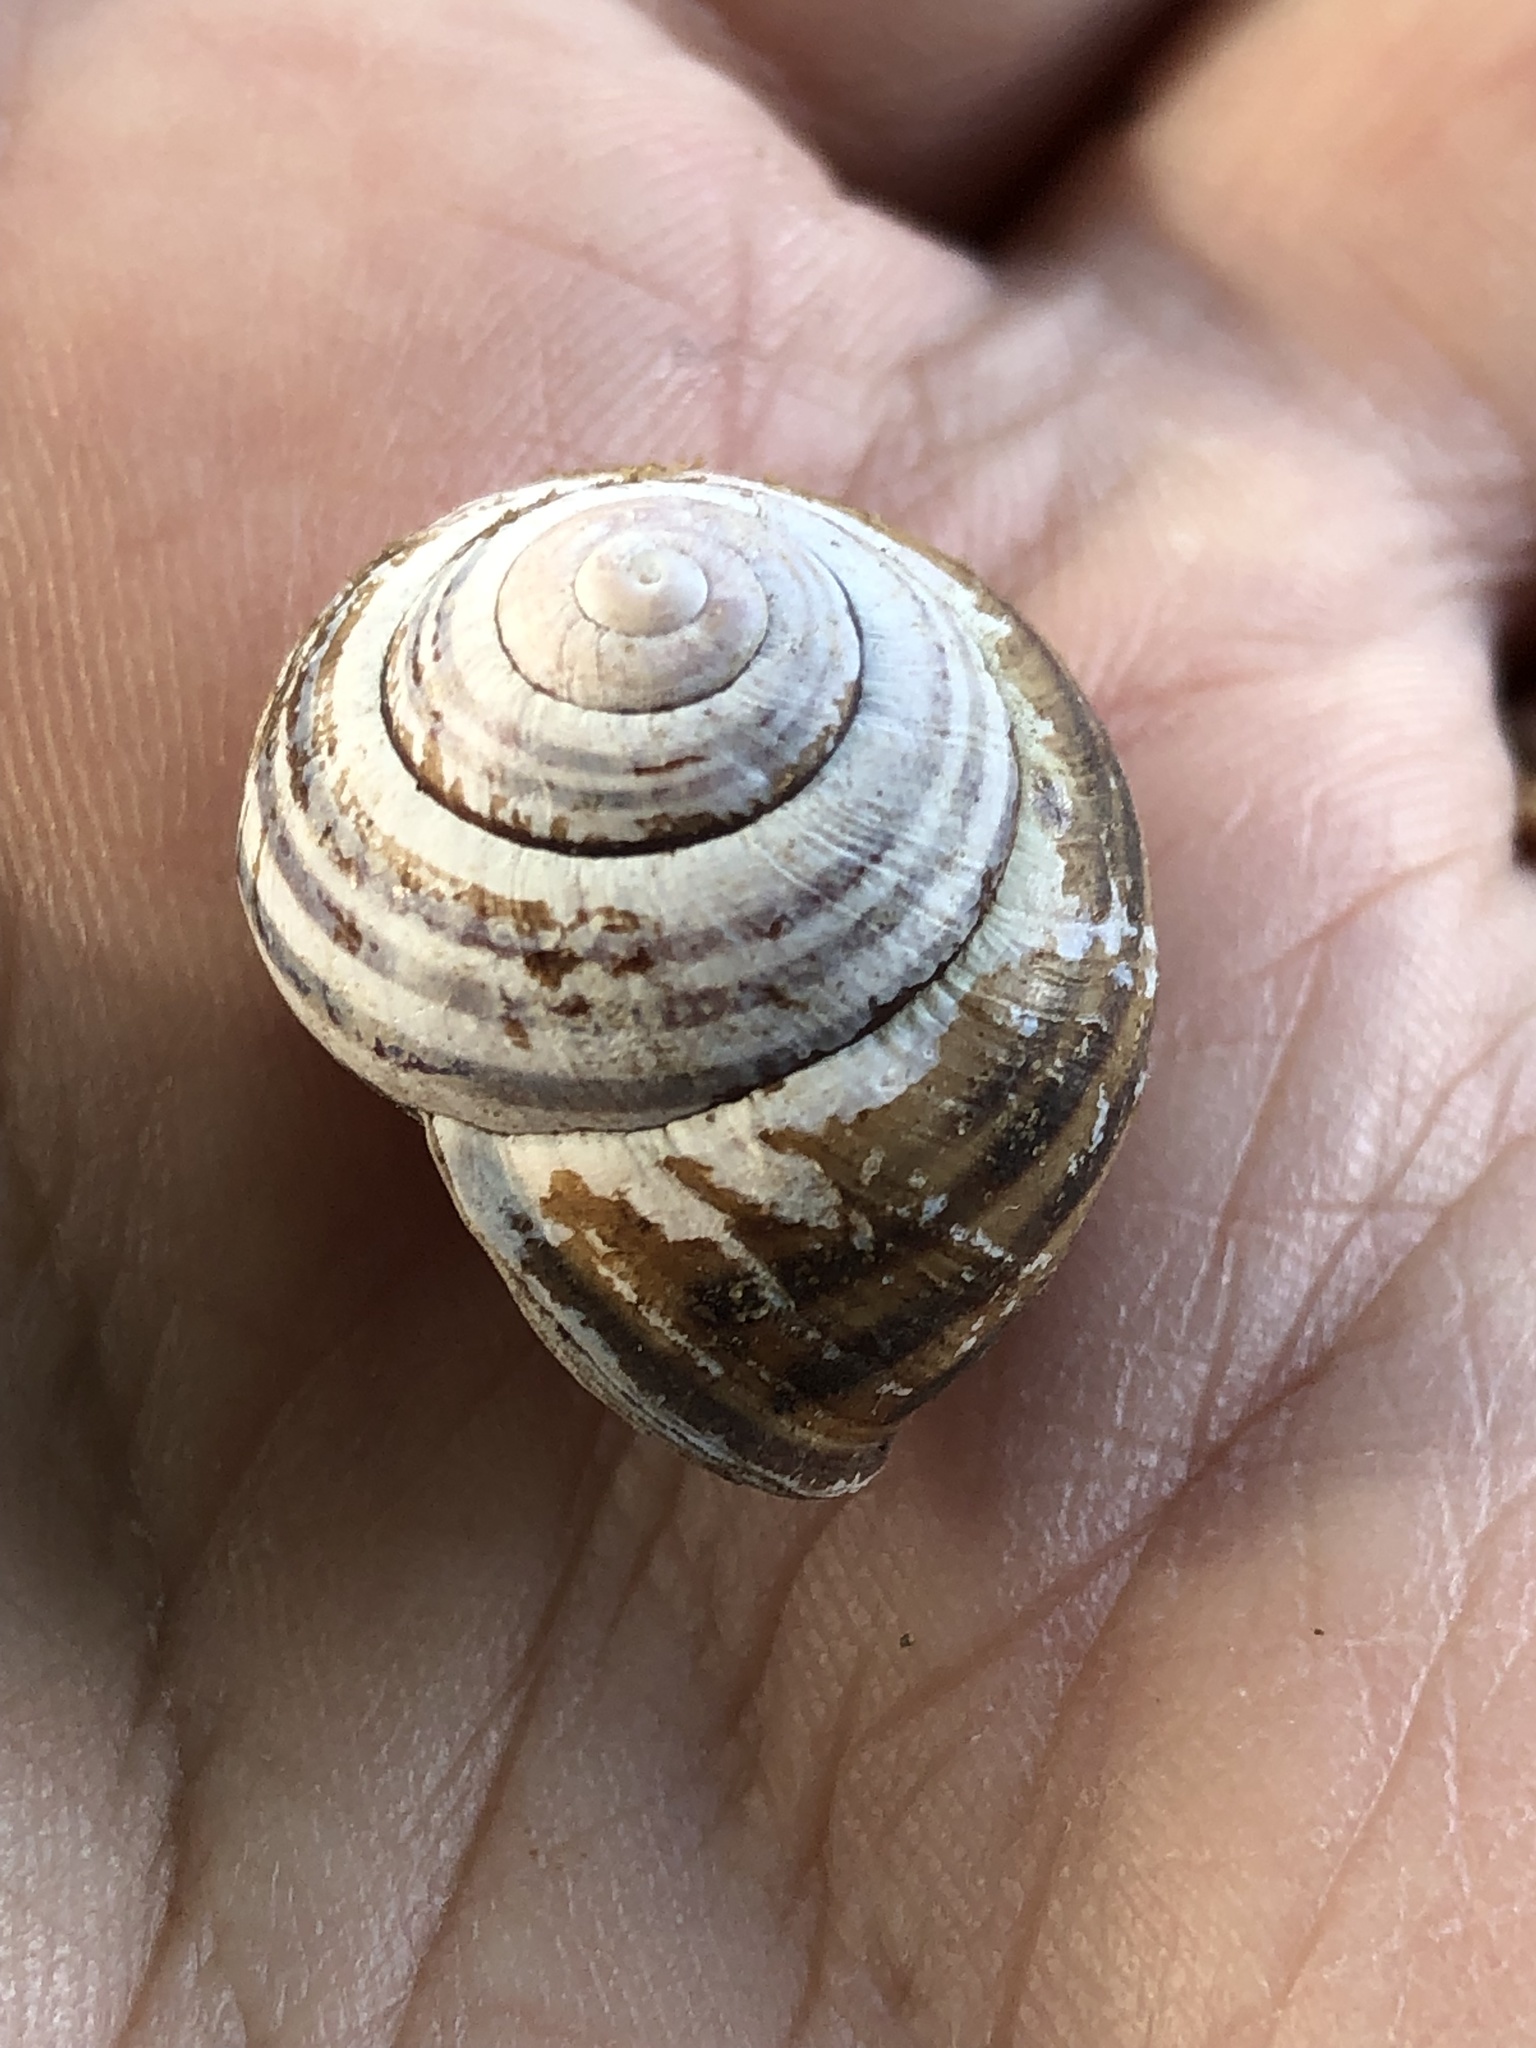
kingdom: Animalia
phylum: Mollusca
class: Gastropoda
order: Stylommatophora
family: Helicidae
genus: Cepaea
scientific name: Cepaea nemoralis
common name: Grovesnail
